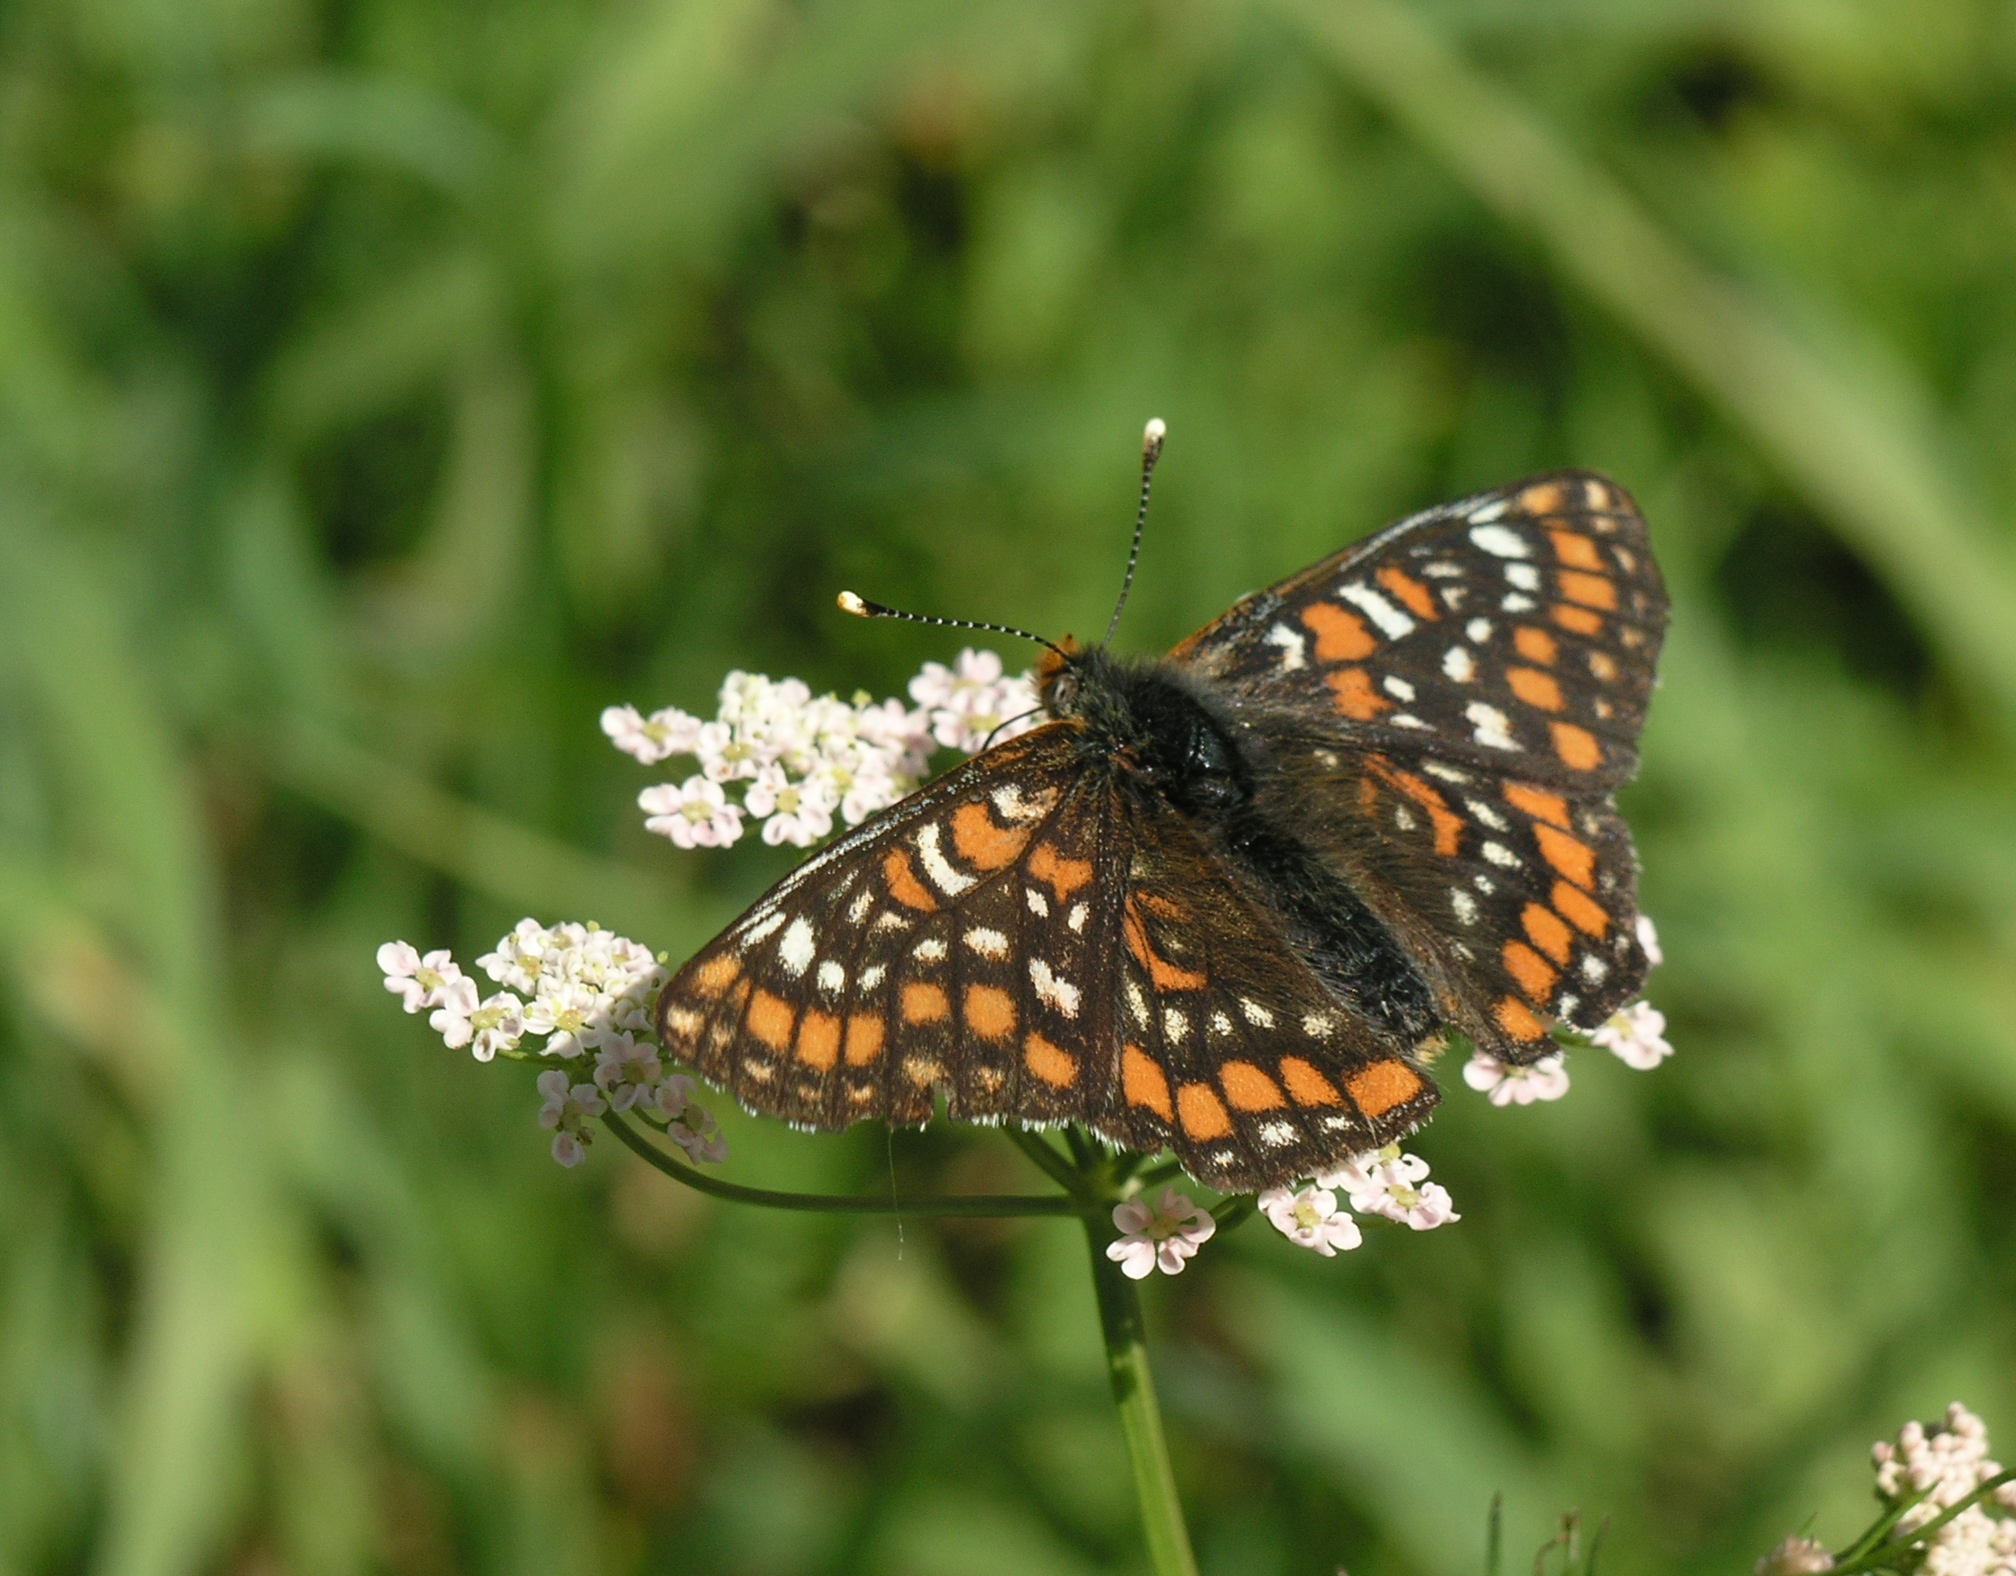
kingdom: Animalia
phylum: Arthropoda
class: Insecta
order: Lepidoptera
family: Nymphalidae
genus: Euphydryas
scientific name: Euphydryas maturna
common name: Scarce fritillary
